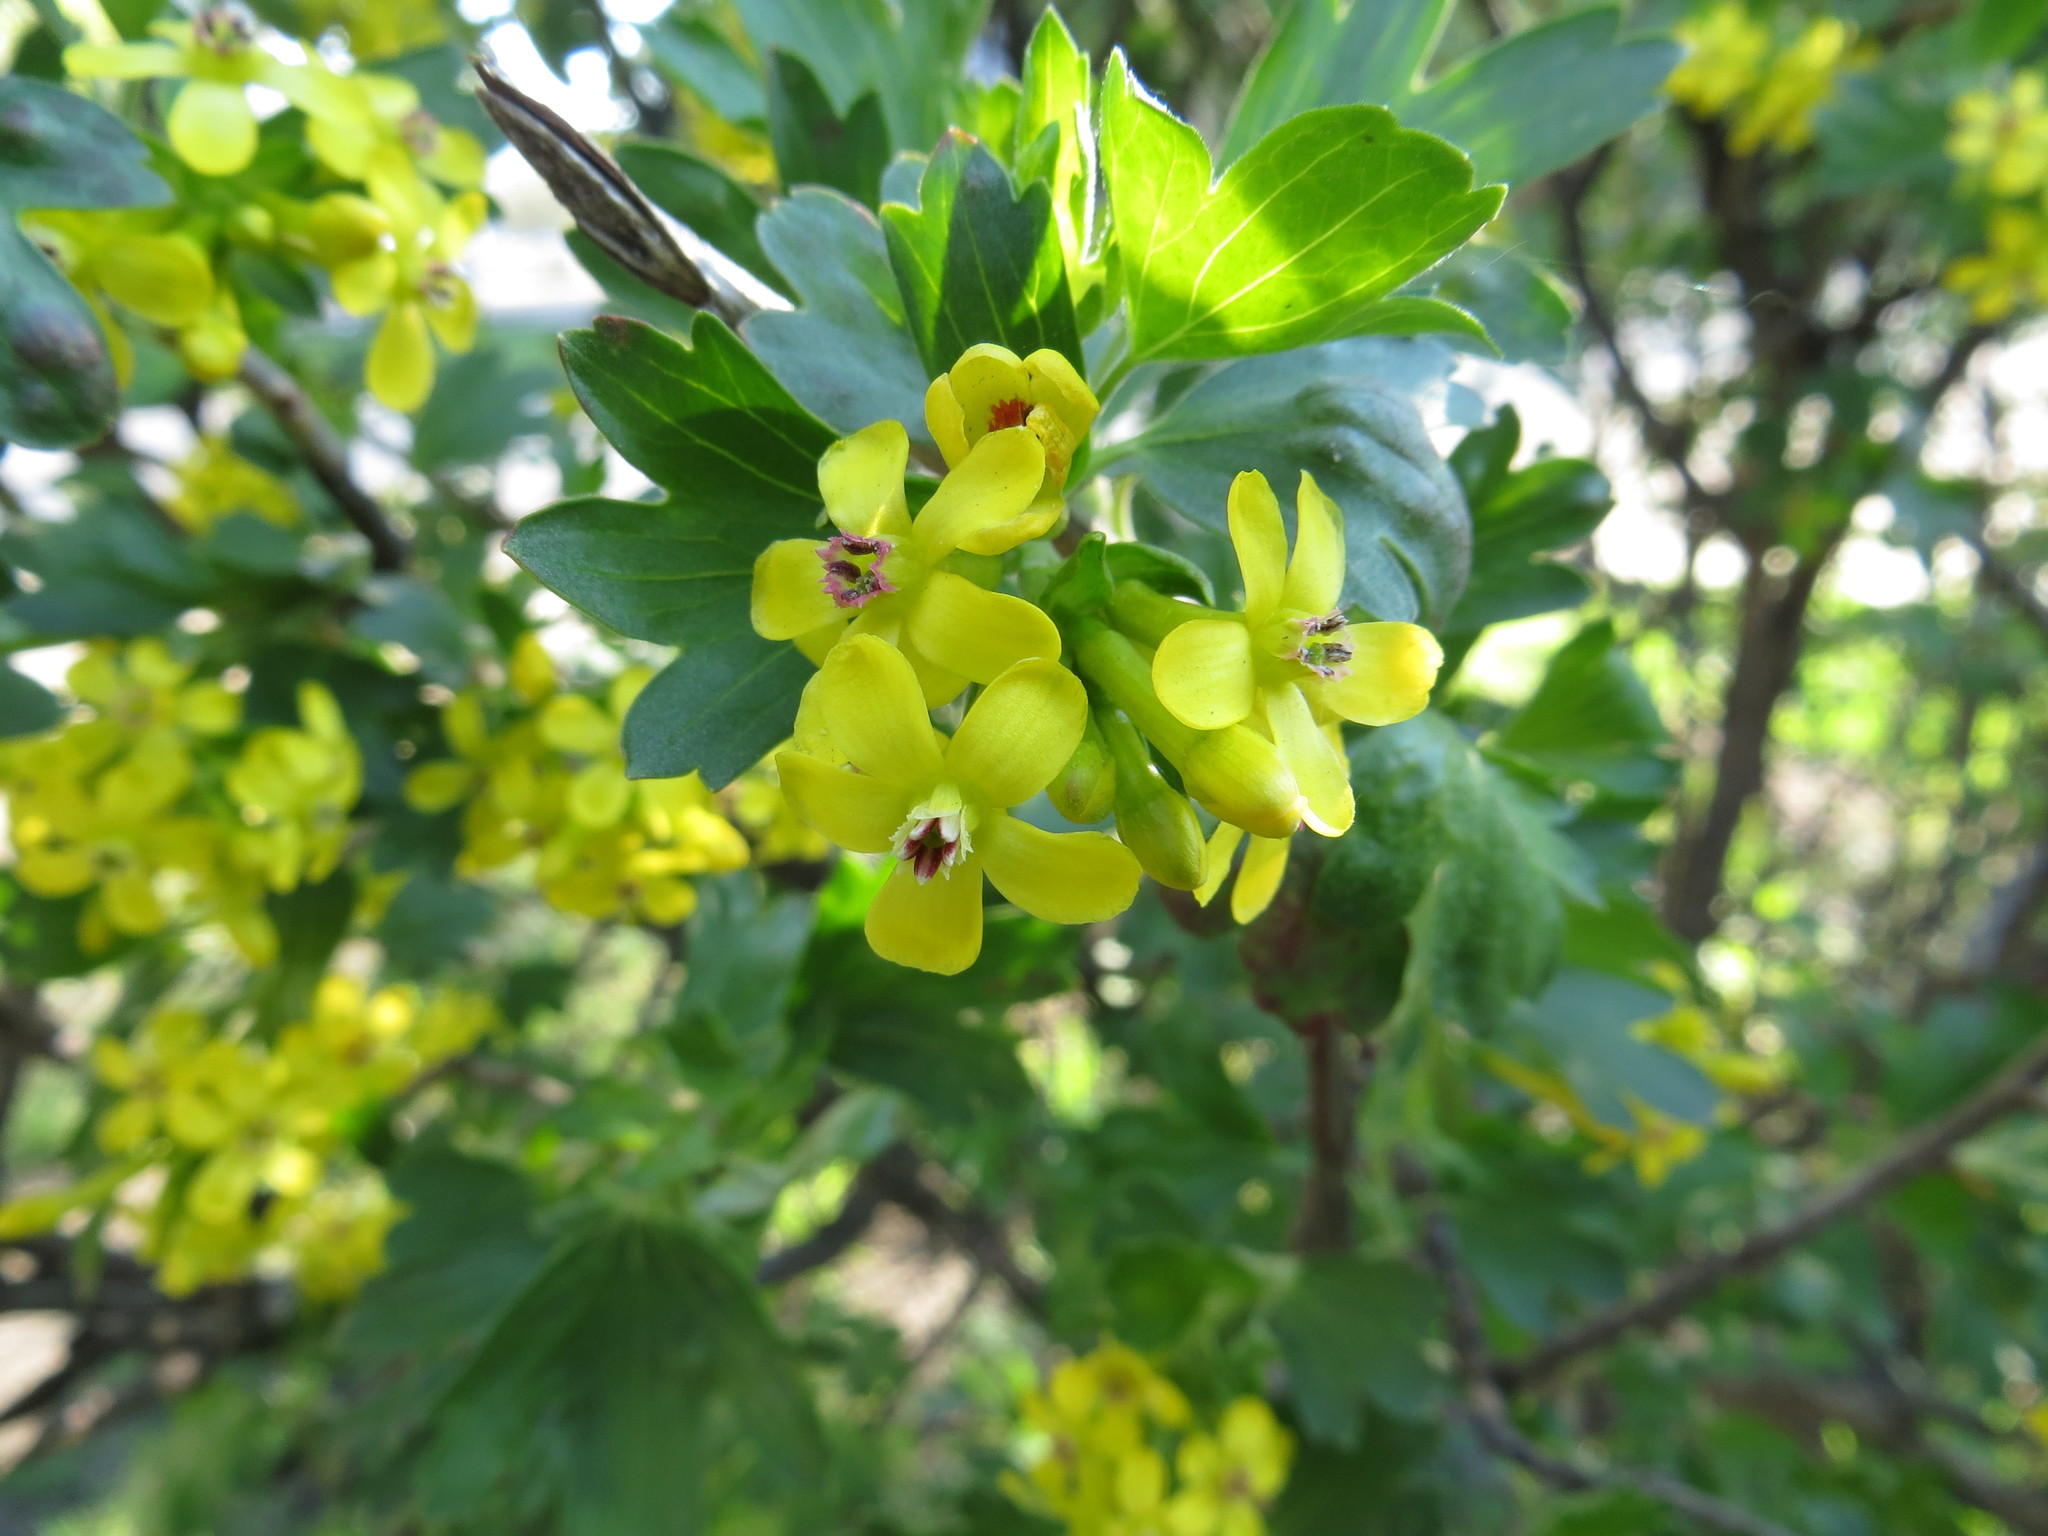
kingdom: Plantae
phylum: Tracheophyta
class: Magnoliopsida
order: Saxifragales
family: Grossulariaceae
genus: Ribes
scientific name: Ribes aureum
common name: Golden currant
